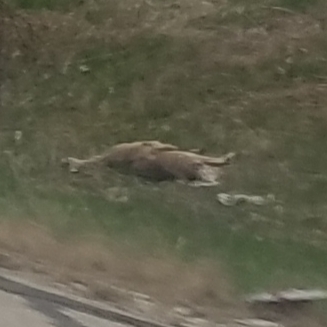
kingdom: Animalia
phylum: Chordata
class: Mammalia
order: Artiodactyla
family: Cervidae
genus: Odocoileus
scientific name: Odocoileus virginianus
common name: White-tailed deer
